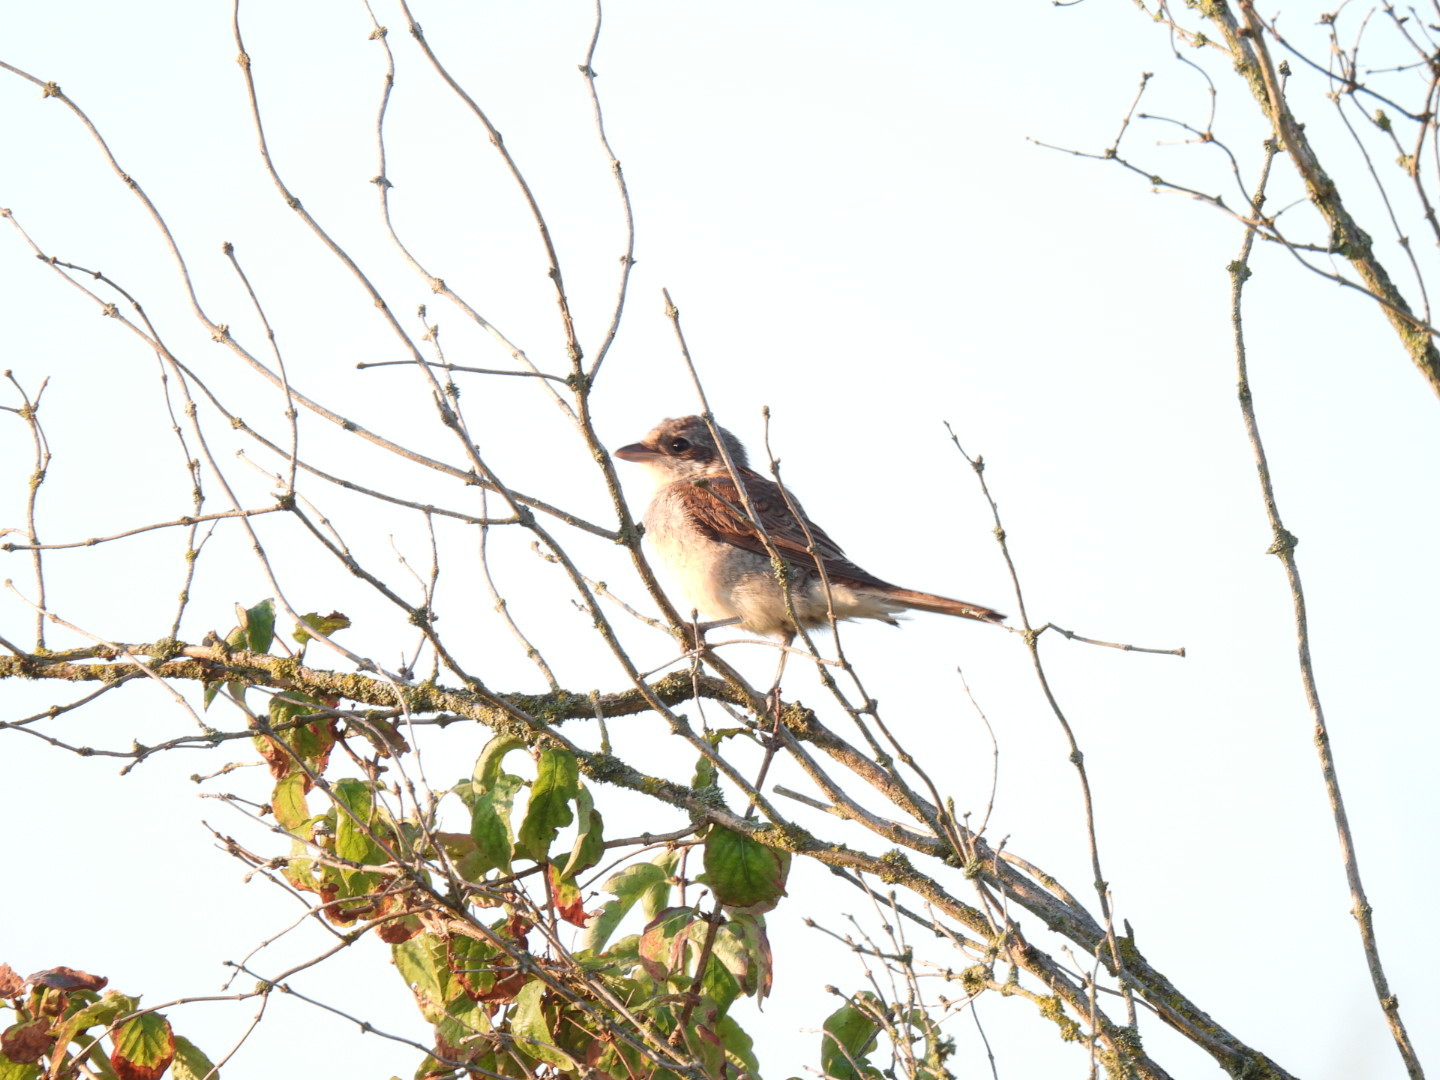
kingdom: Animalia
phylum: Chordata
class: Aves
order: Passeriformes
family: Laniidae
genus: Lanius
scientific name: Lanius collurio
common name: Red-backed shrike
